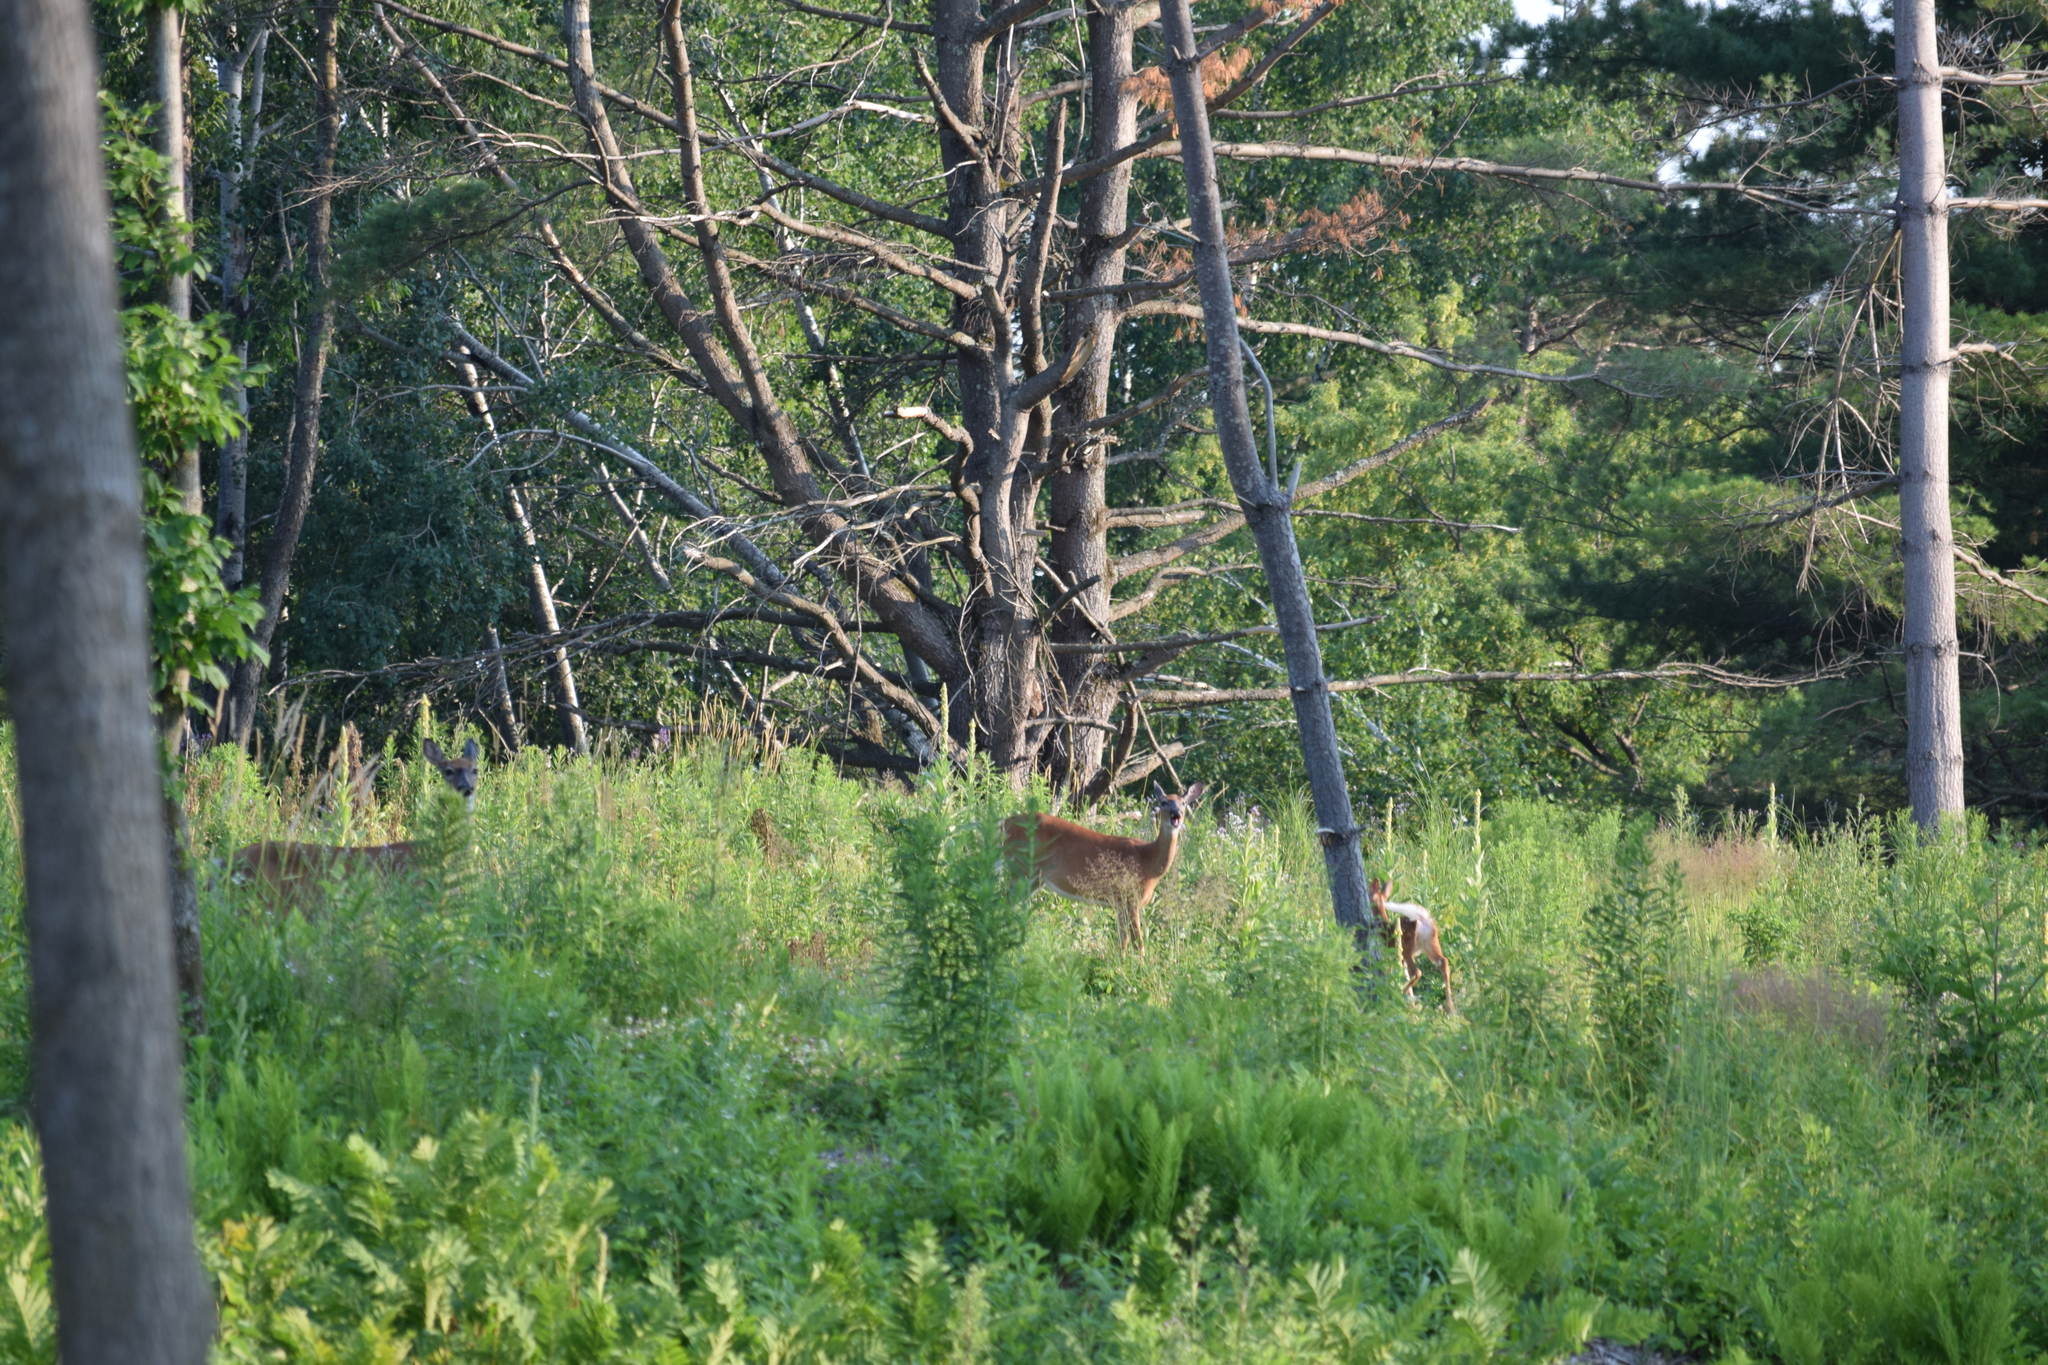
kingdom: Animalia
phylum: Chordata
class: Mammalia
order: Artiodactyla
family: Cervidae
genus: Odocoileus
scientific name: Odocoileus virginianus
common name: White-tailed deer
